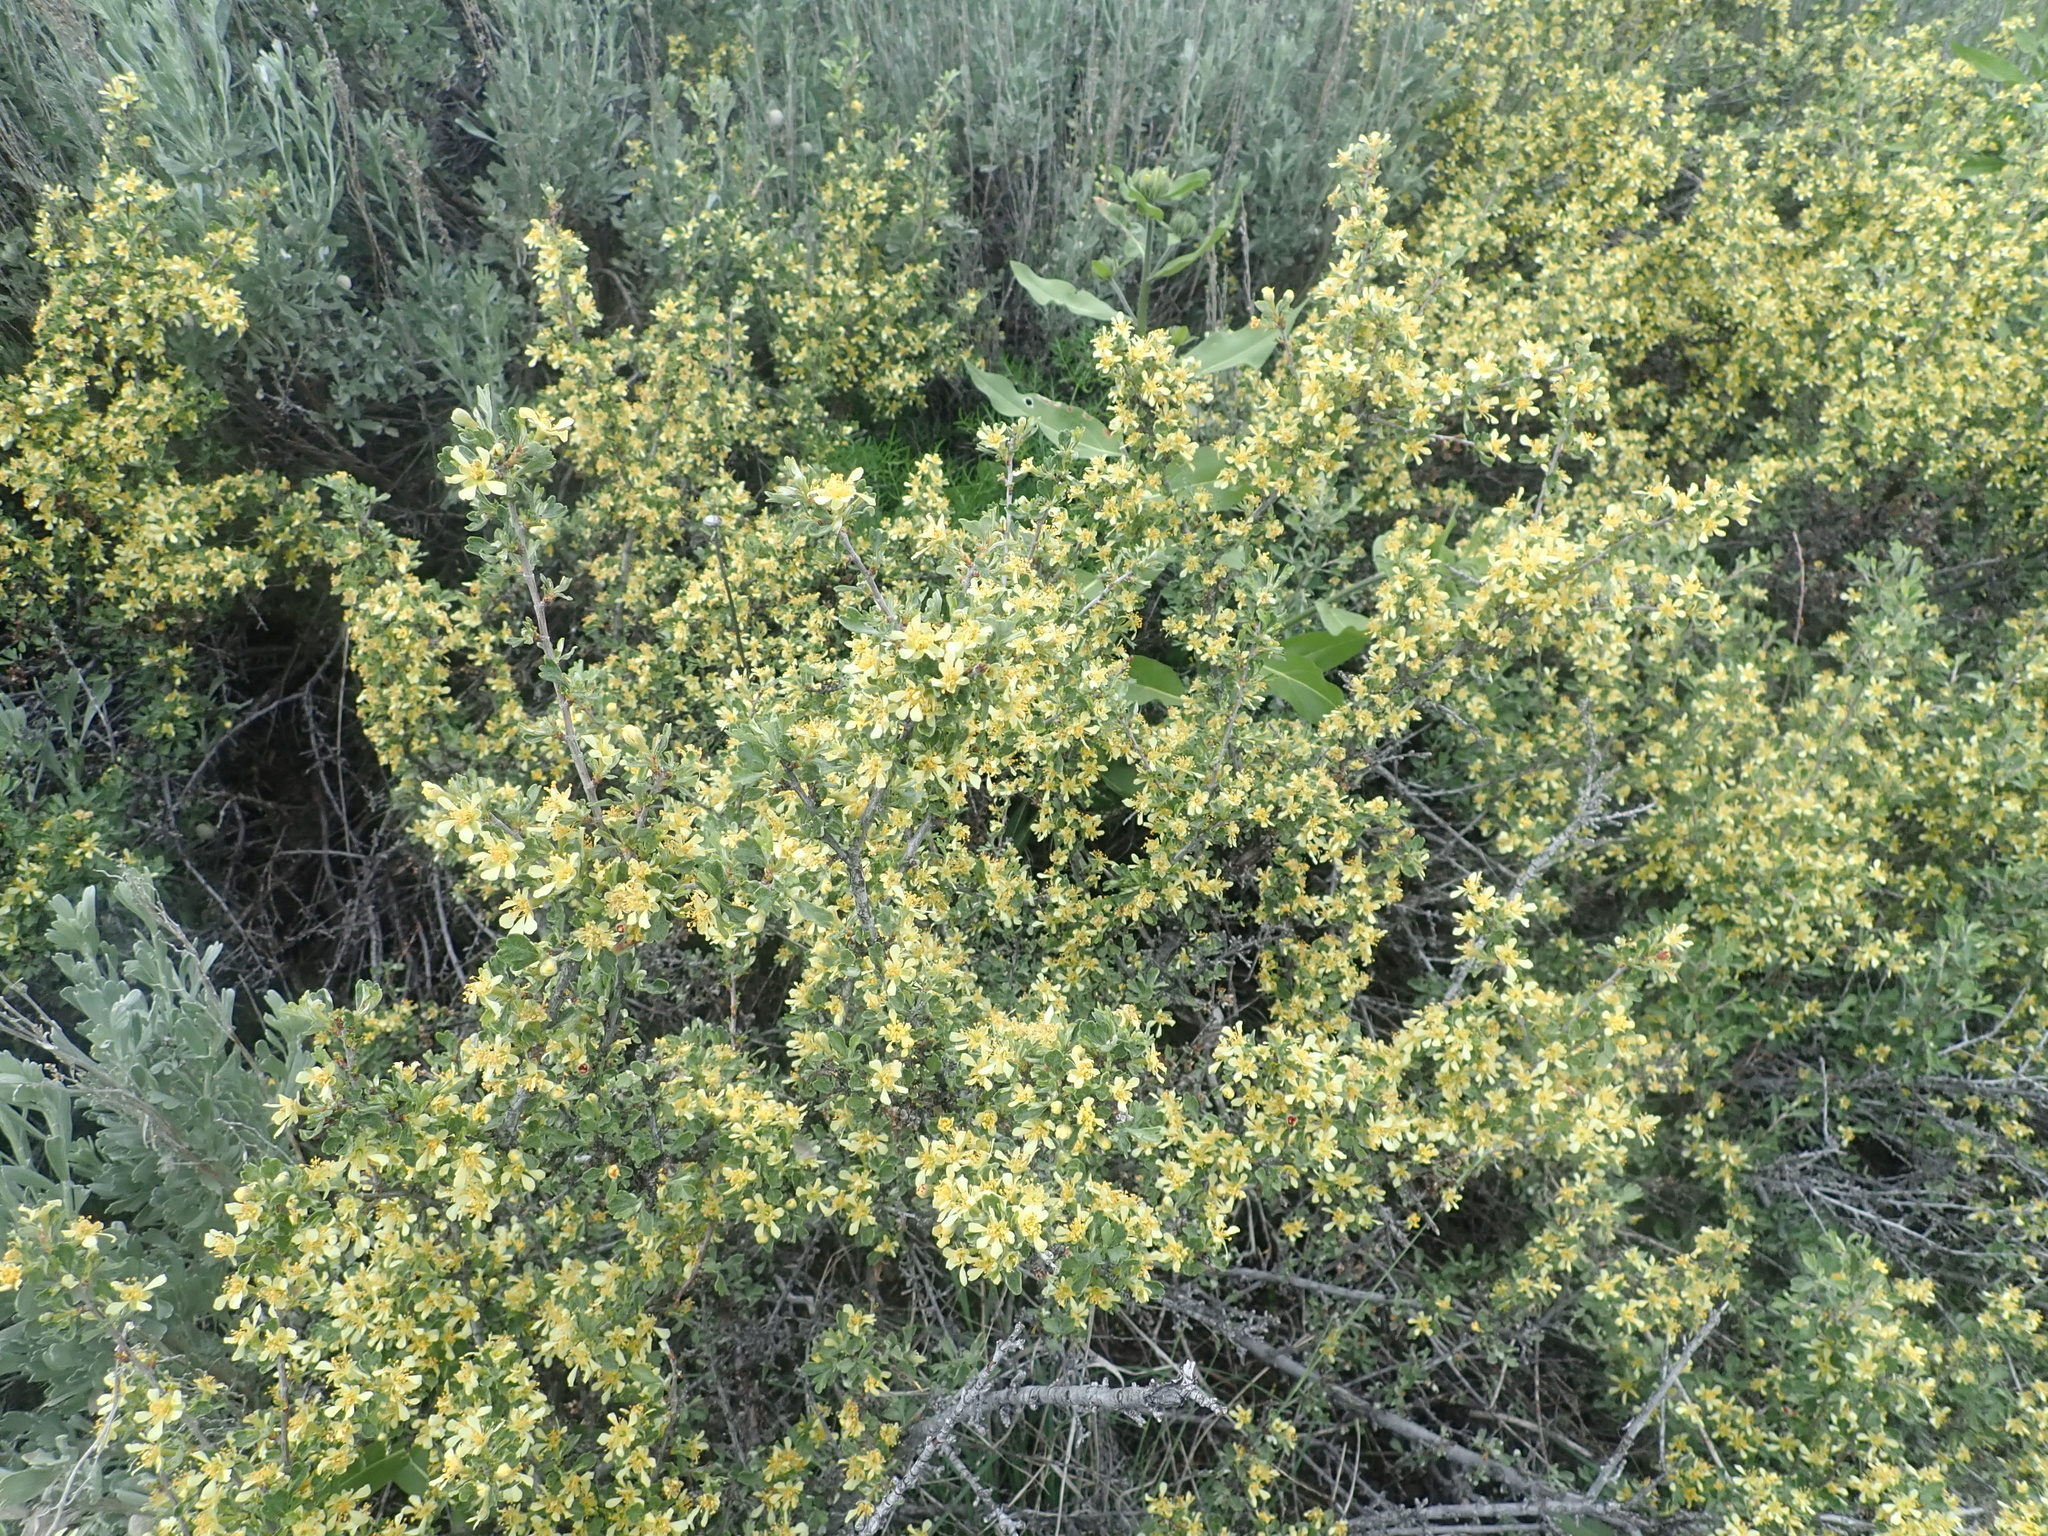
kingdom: Plantae
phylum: Tracheophyta
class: Magnoliopsida
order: Rosales
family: Rosaceae
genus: Purshia
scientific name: Purshia tridentata
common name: Antelope bitterbrush
